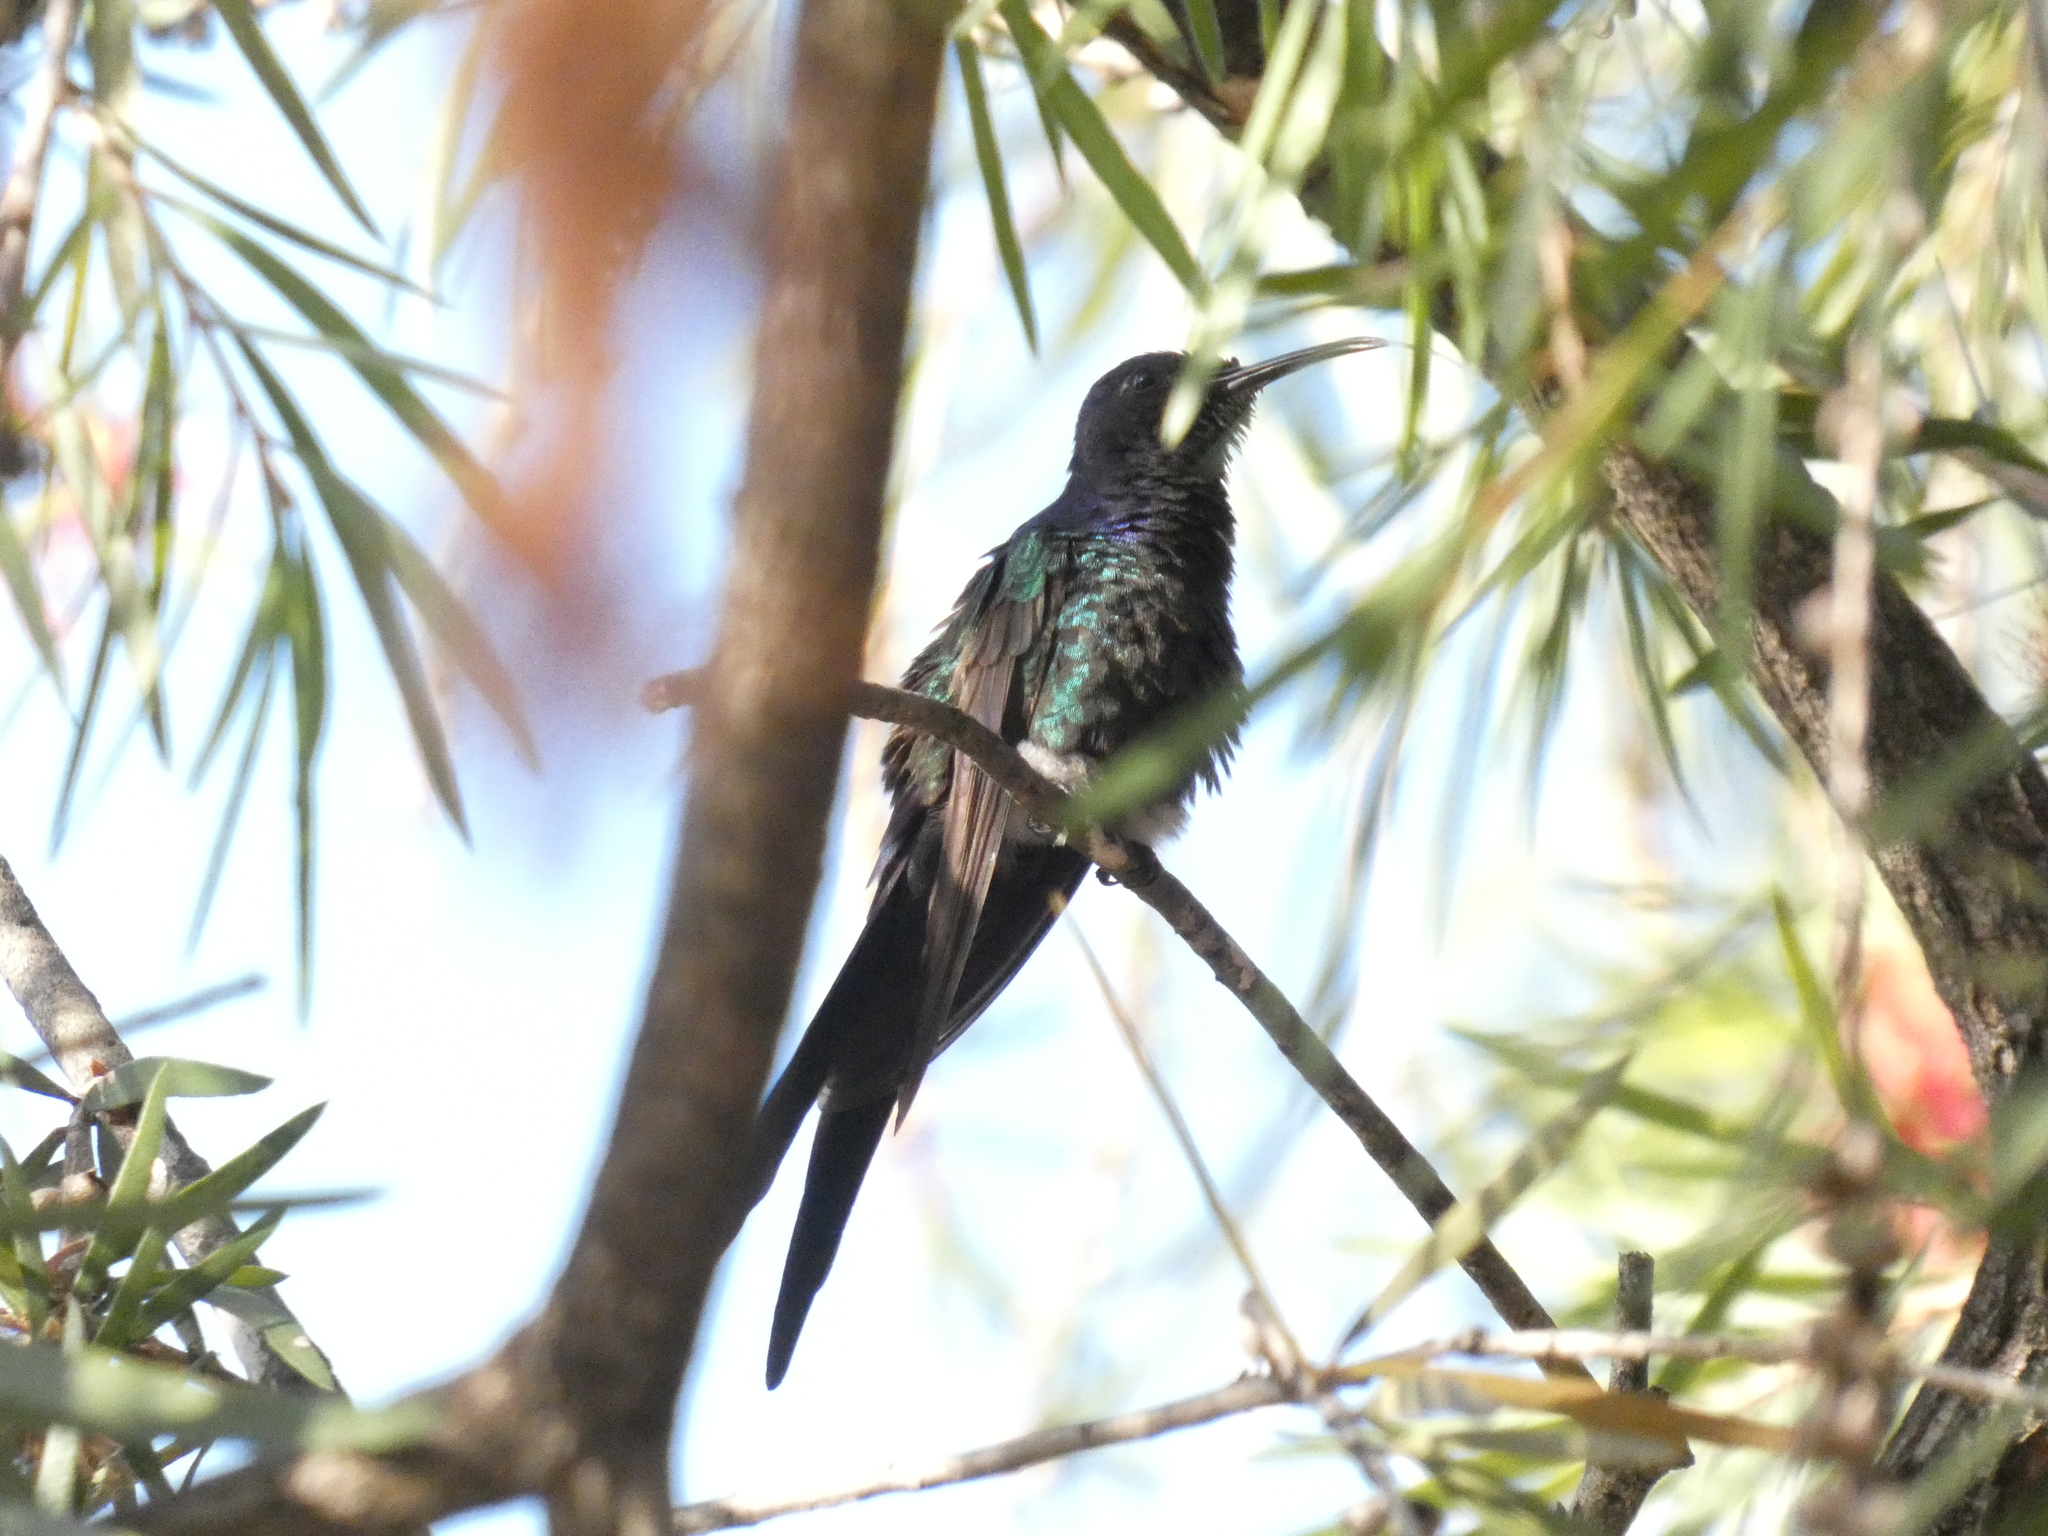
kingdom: Animalia
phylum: Chordata
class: Aves
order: Apodiformes
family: Trochilidae
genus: Eupetomena
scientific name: Eupetomena macroura
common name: Swallow-tailed hummingbird
